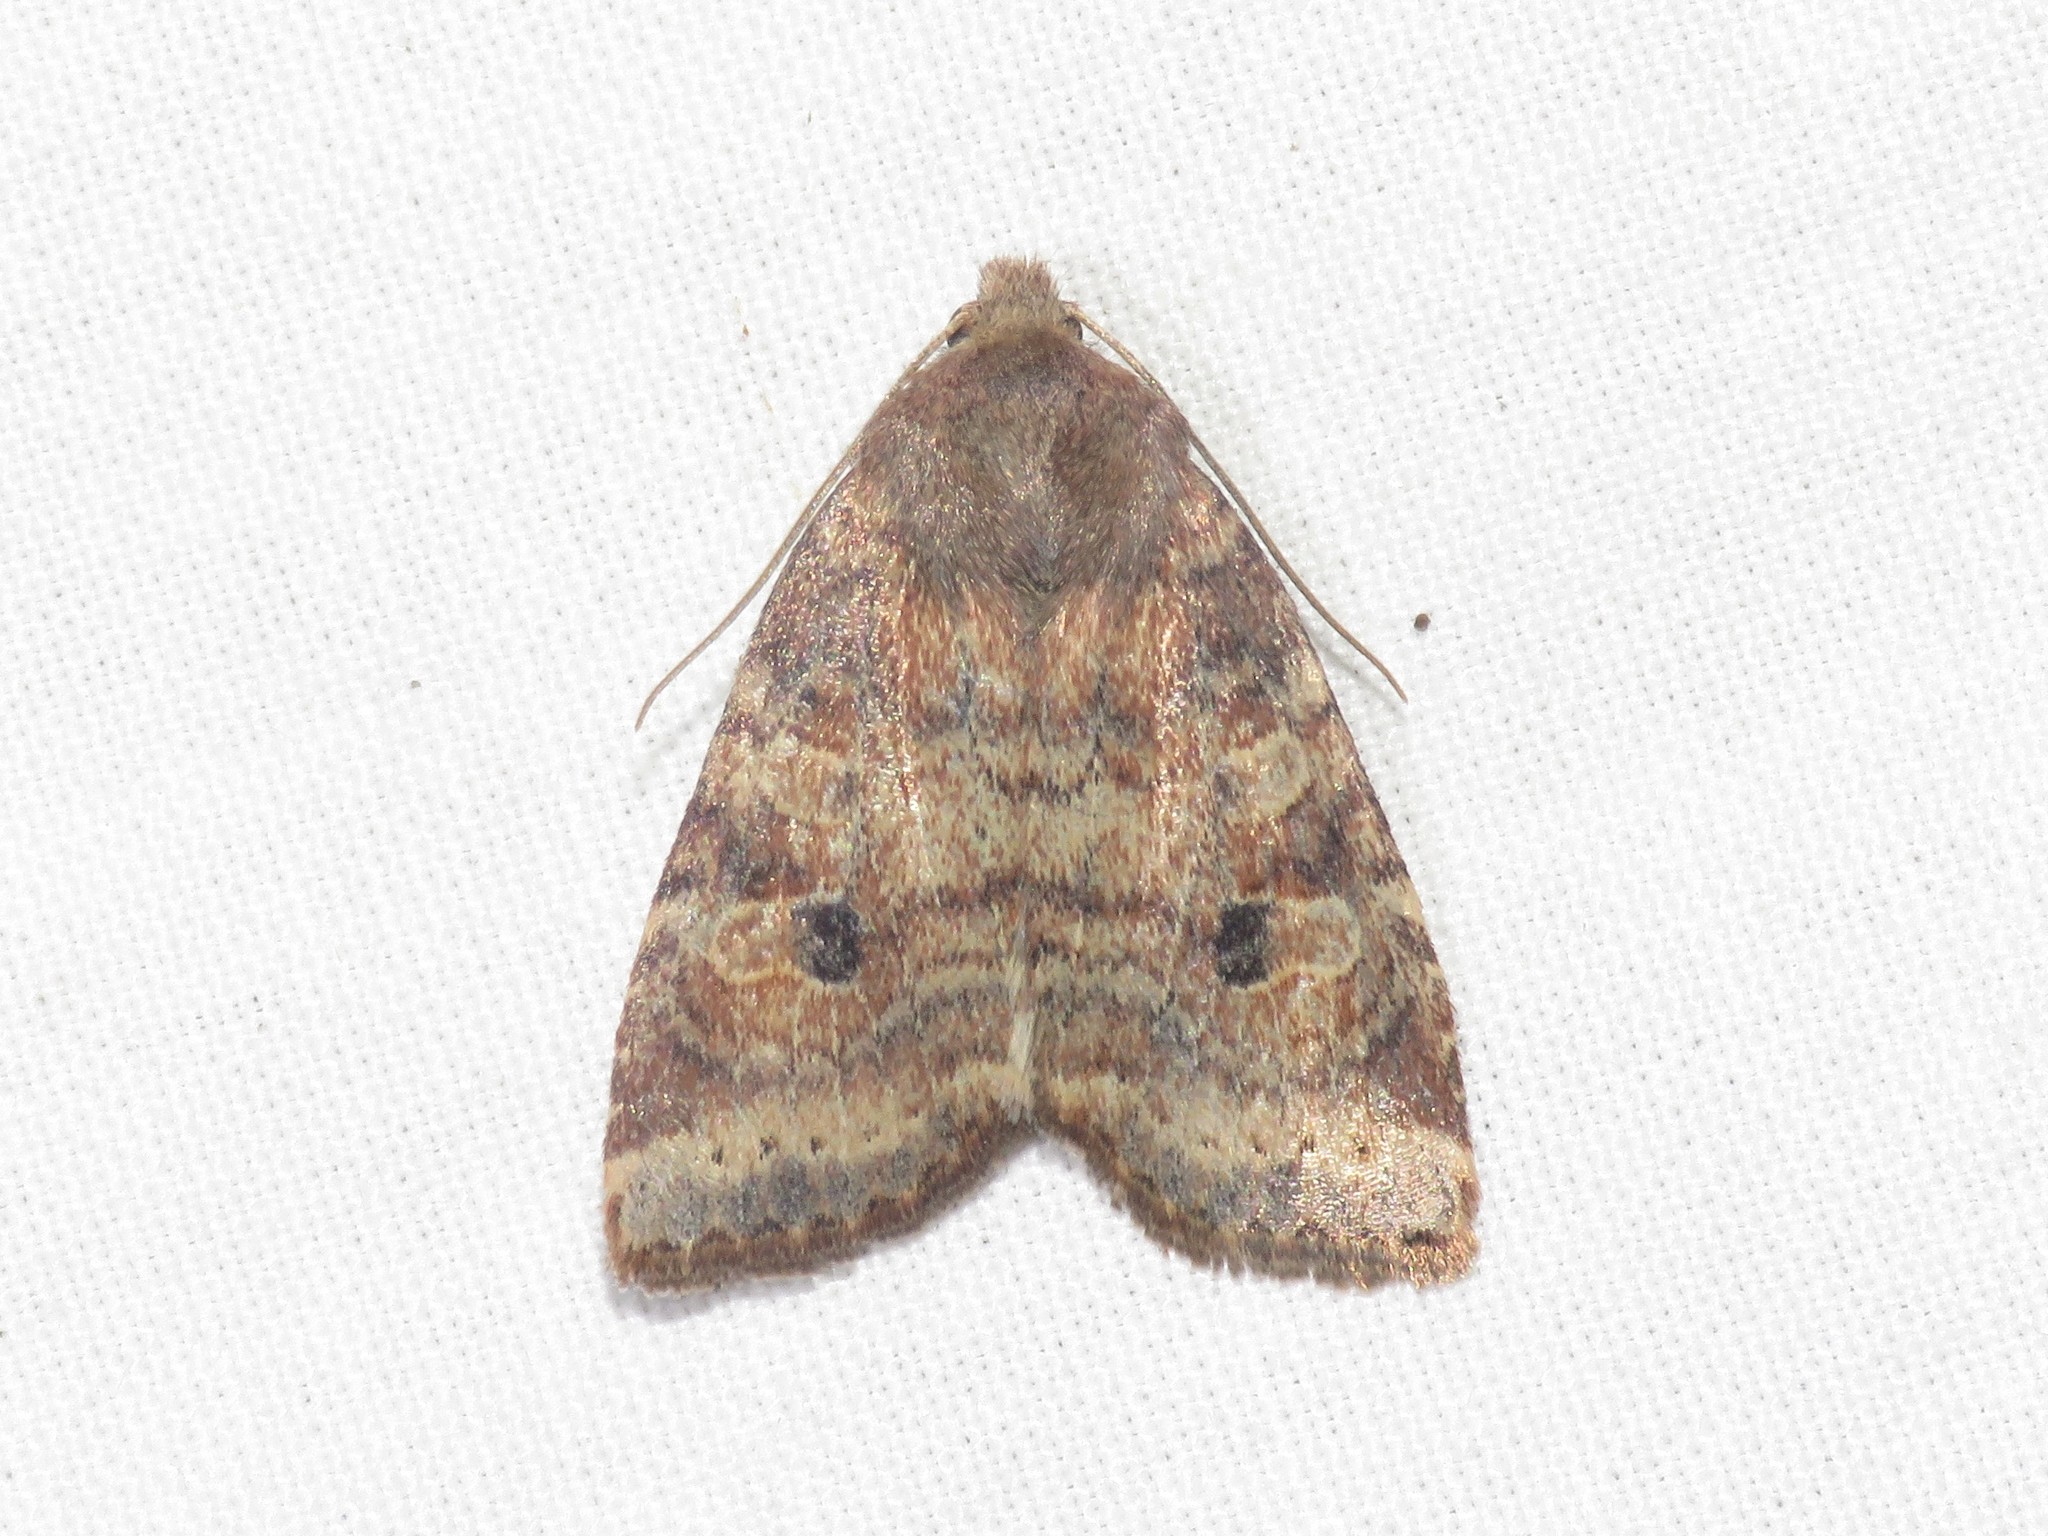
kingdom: Animalia
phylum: Arthropoda
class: Insecta
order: Lepidoptera
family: Noctuidae
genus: Anathix
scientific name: Anathix puta
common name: Puta sallow
